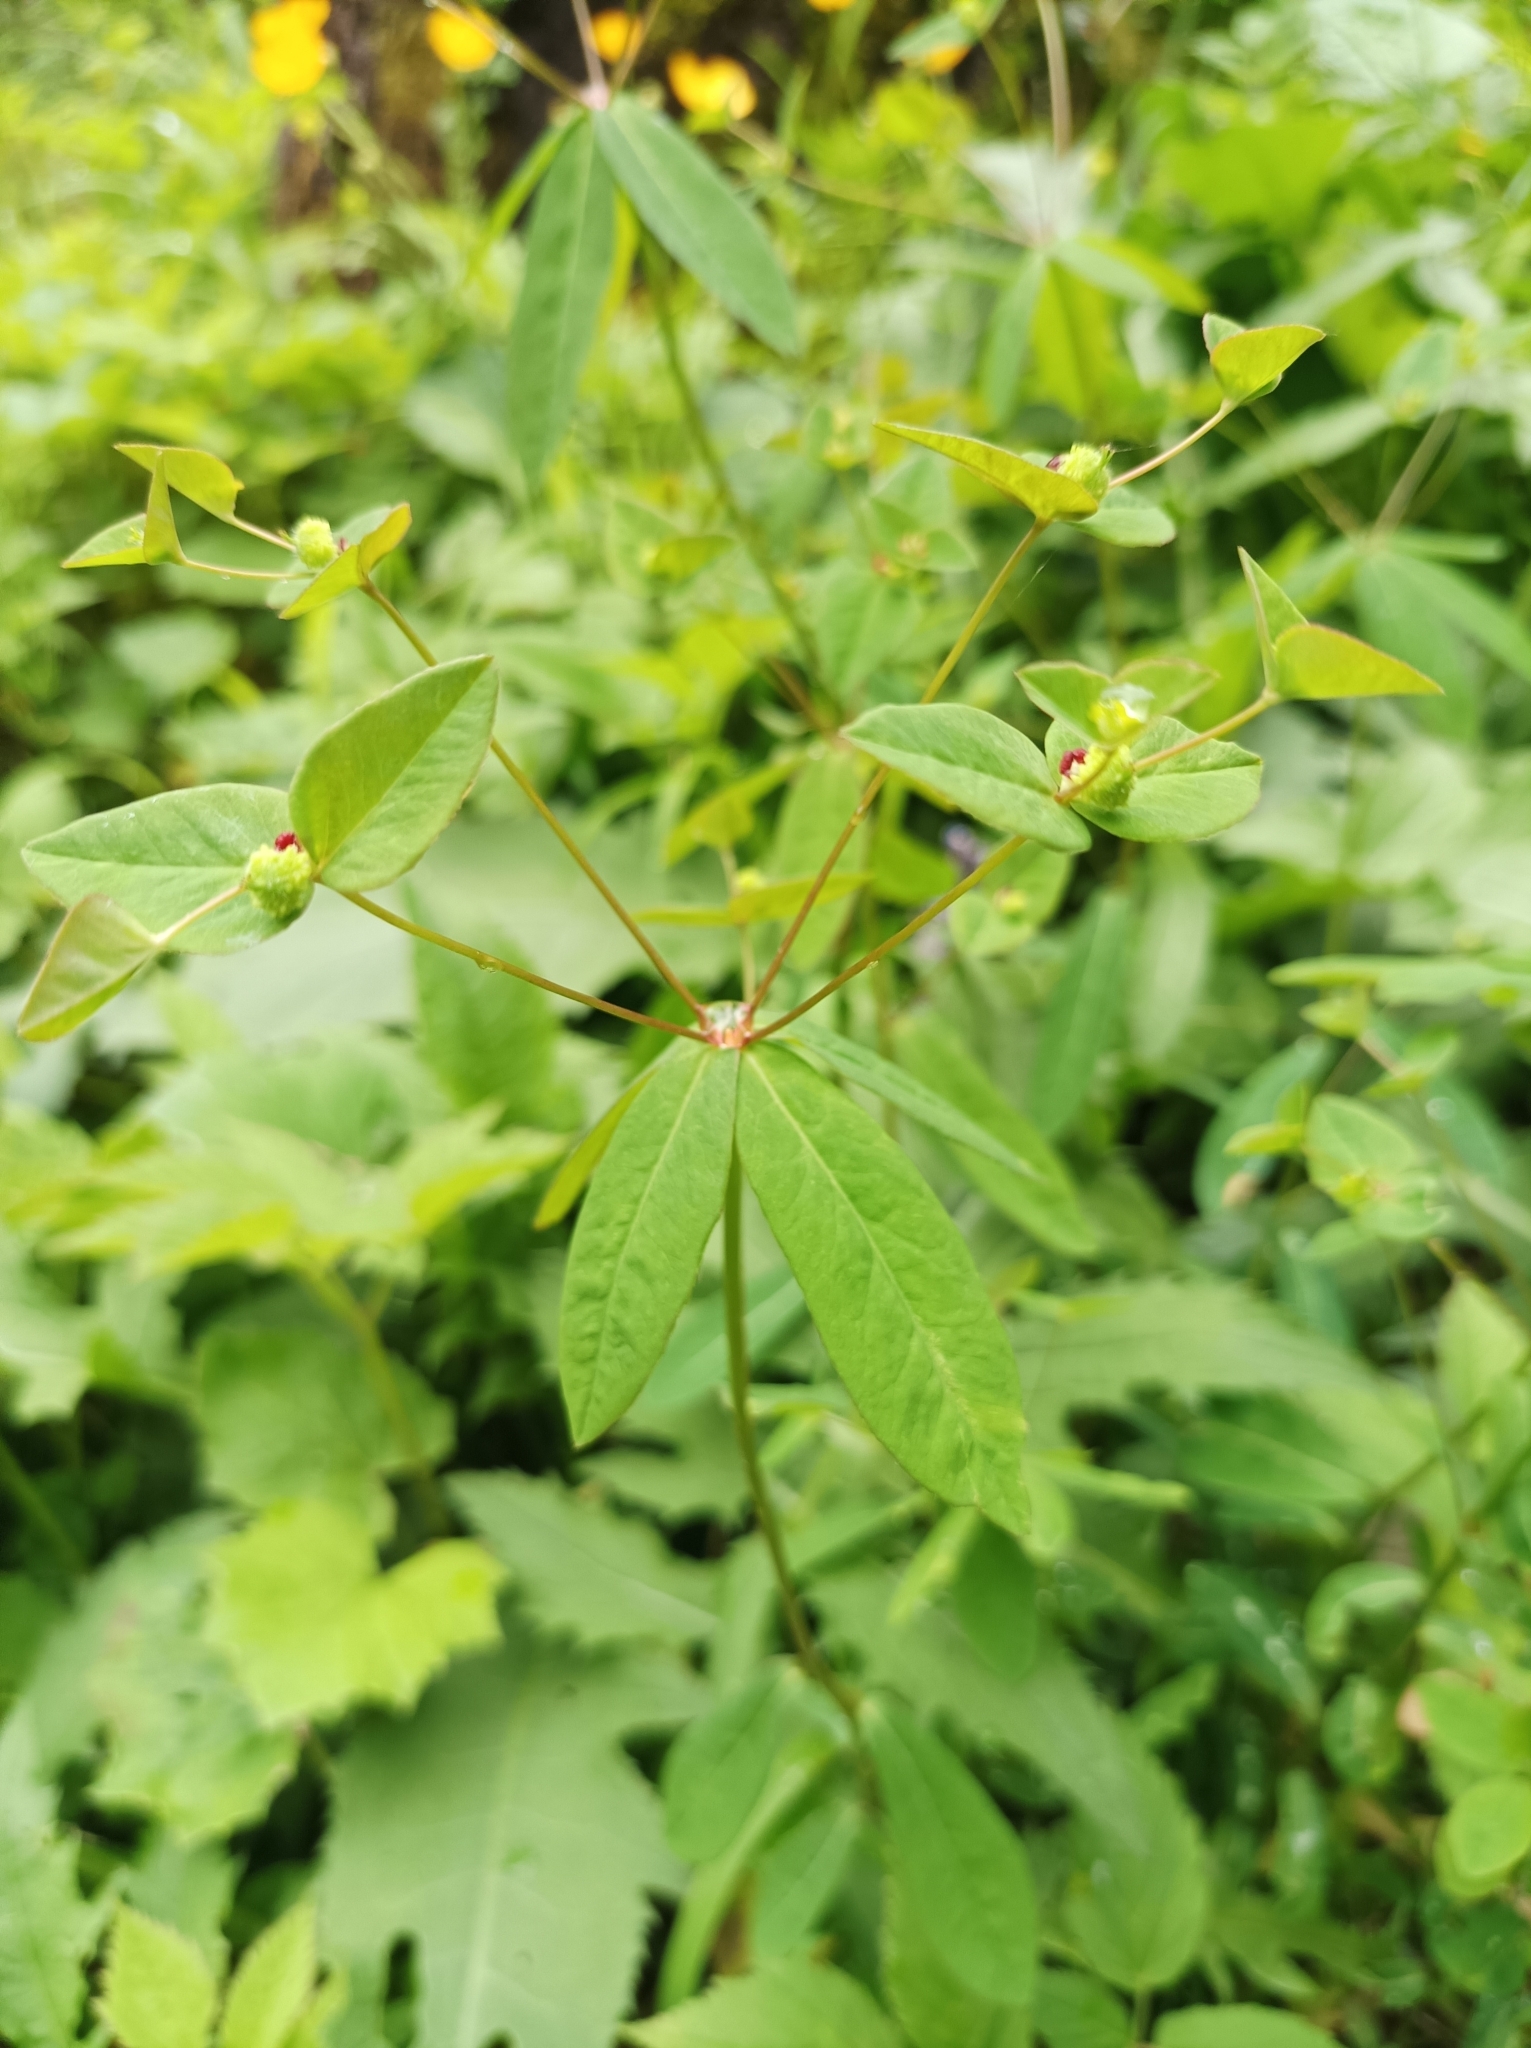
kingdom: Plantae
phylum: Tracheophyta
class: Magnoliopsida
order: Malpighiales
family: Euphorbiaceae
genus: Euphorbia
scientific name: Euphorbia dulcis
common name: Sweet spurge
